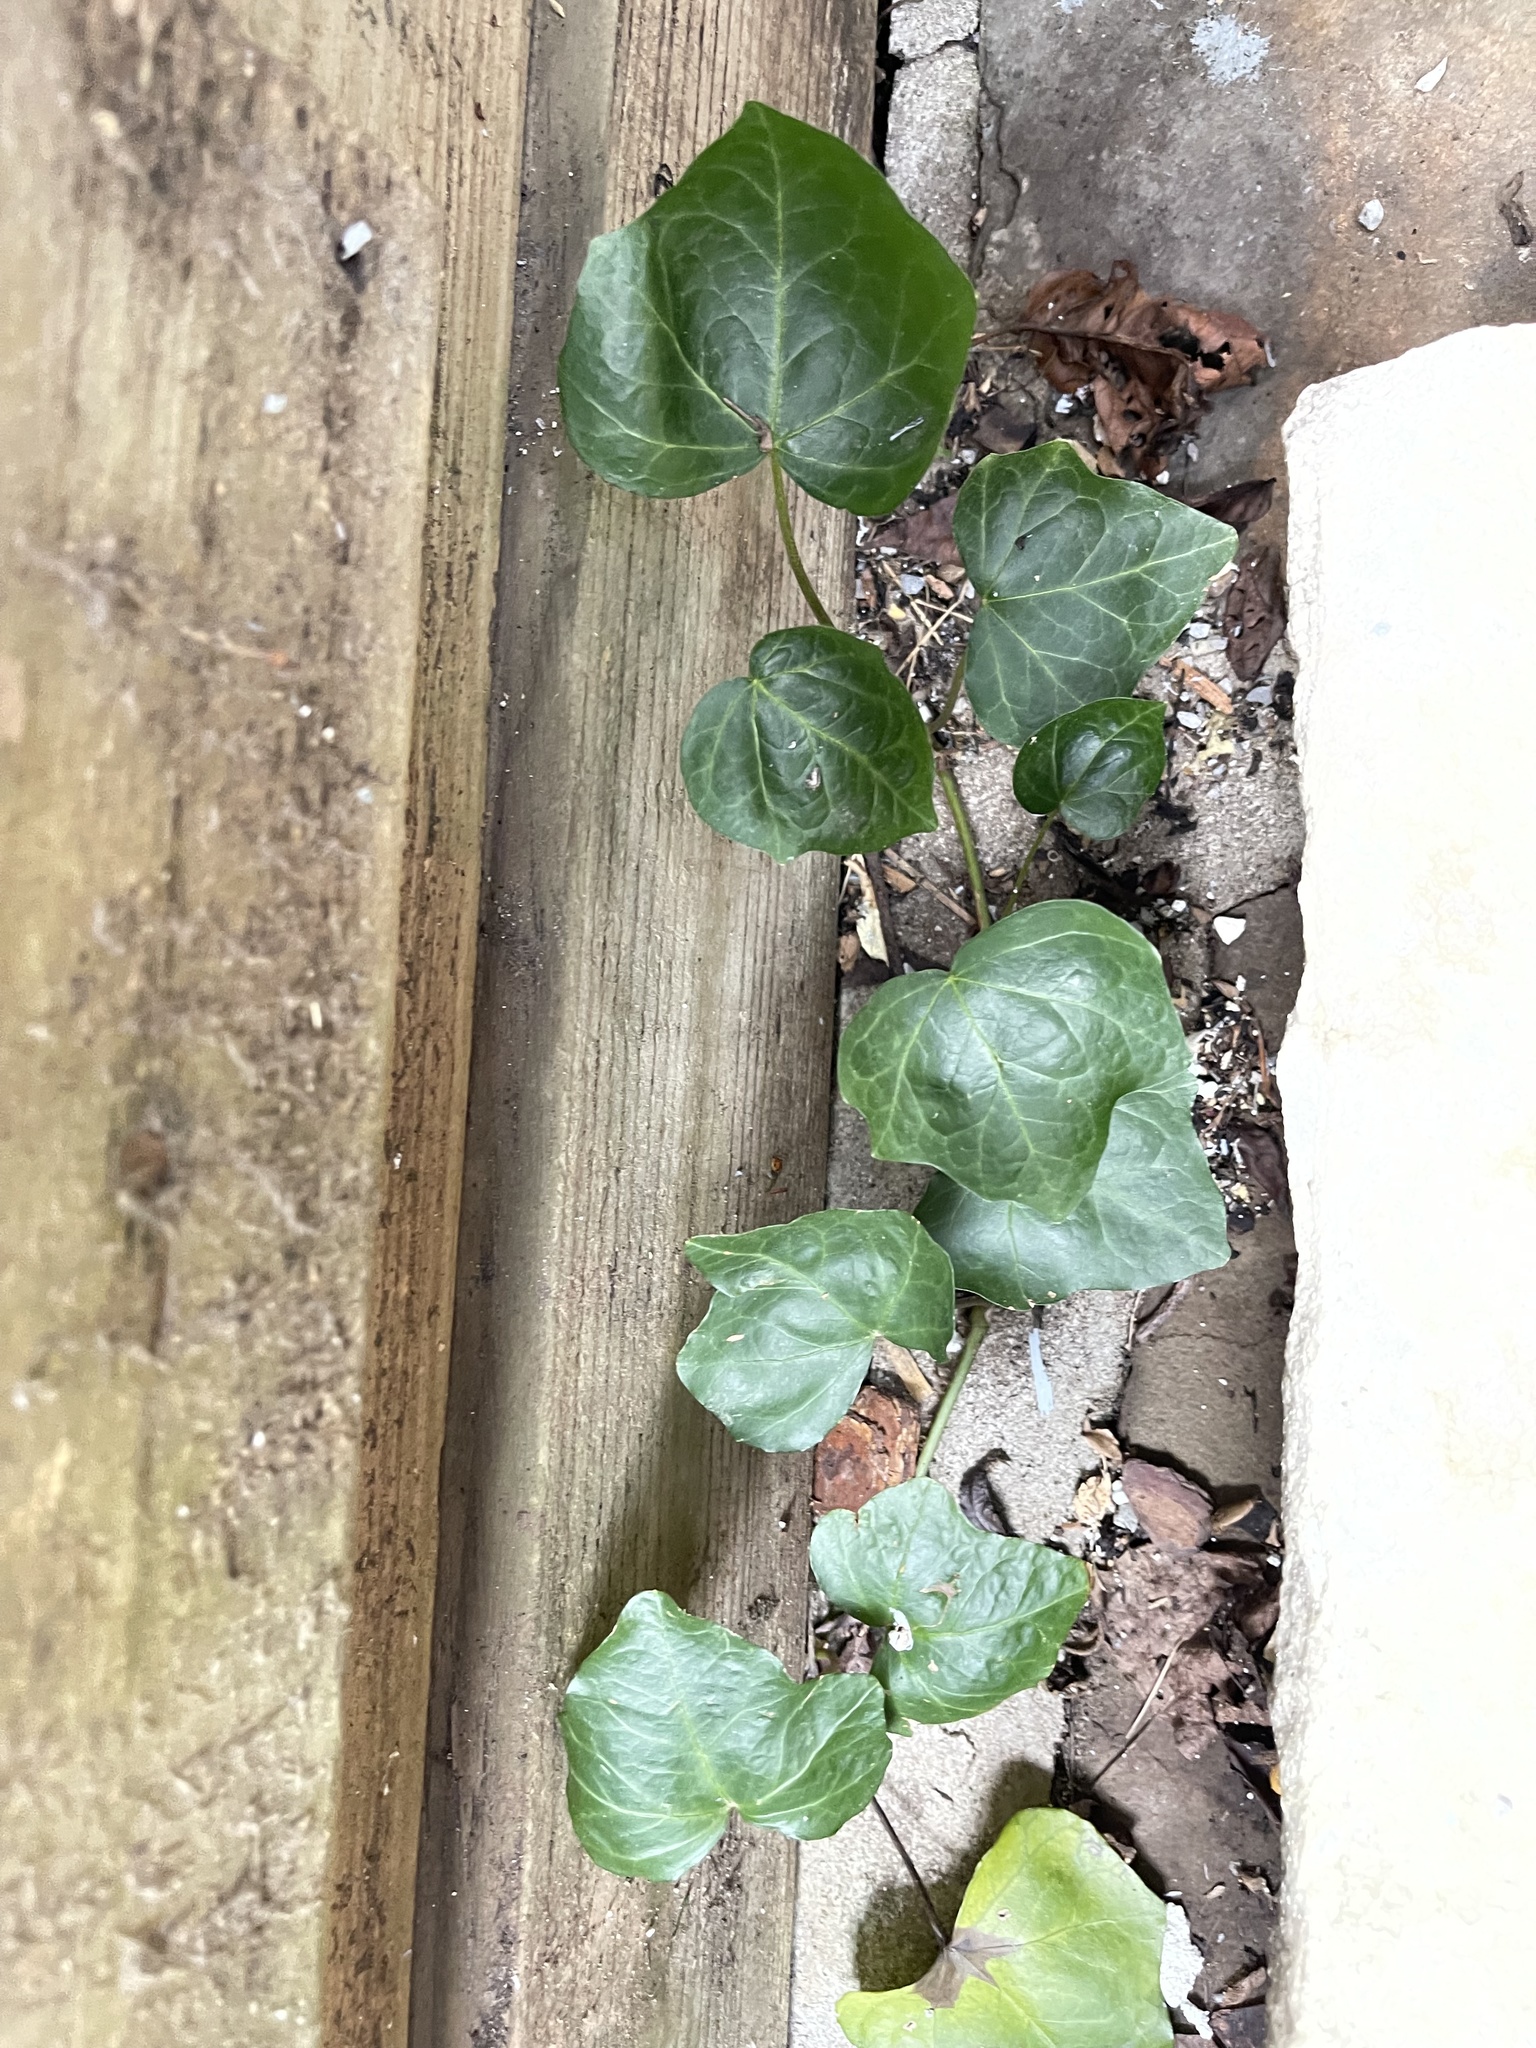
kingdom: Plantae
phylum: Tracheophyta
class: Magnoliopsida
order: Apiales
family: Araliaceae
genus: Hedera
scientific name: Hedera helix
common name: Ivy
